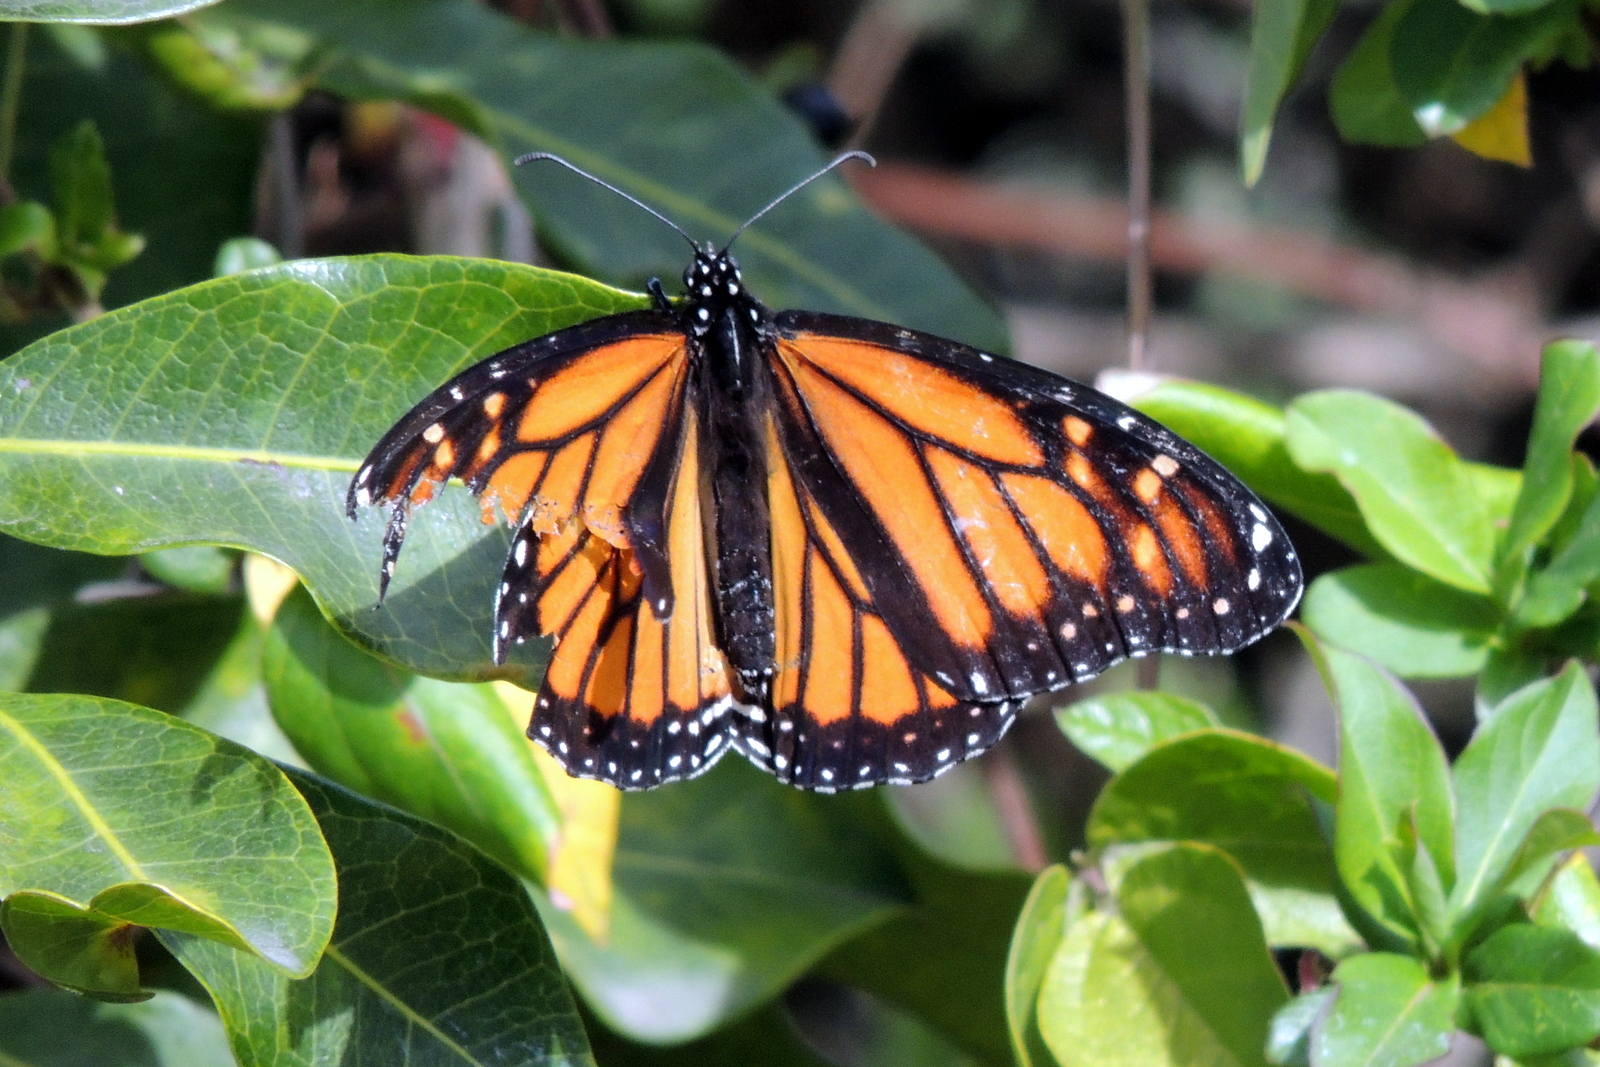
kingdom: Animalia
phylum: Arthropoda
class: Insecta
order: Lepidoptera
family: Nymphalidae
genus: Danaus
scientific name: Danaus plexippus
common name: Monarch
